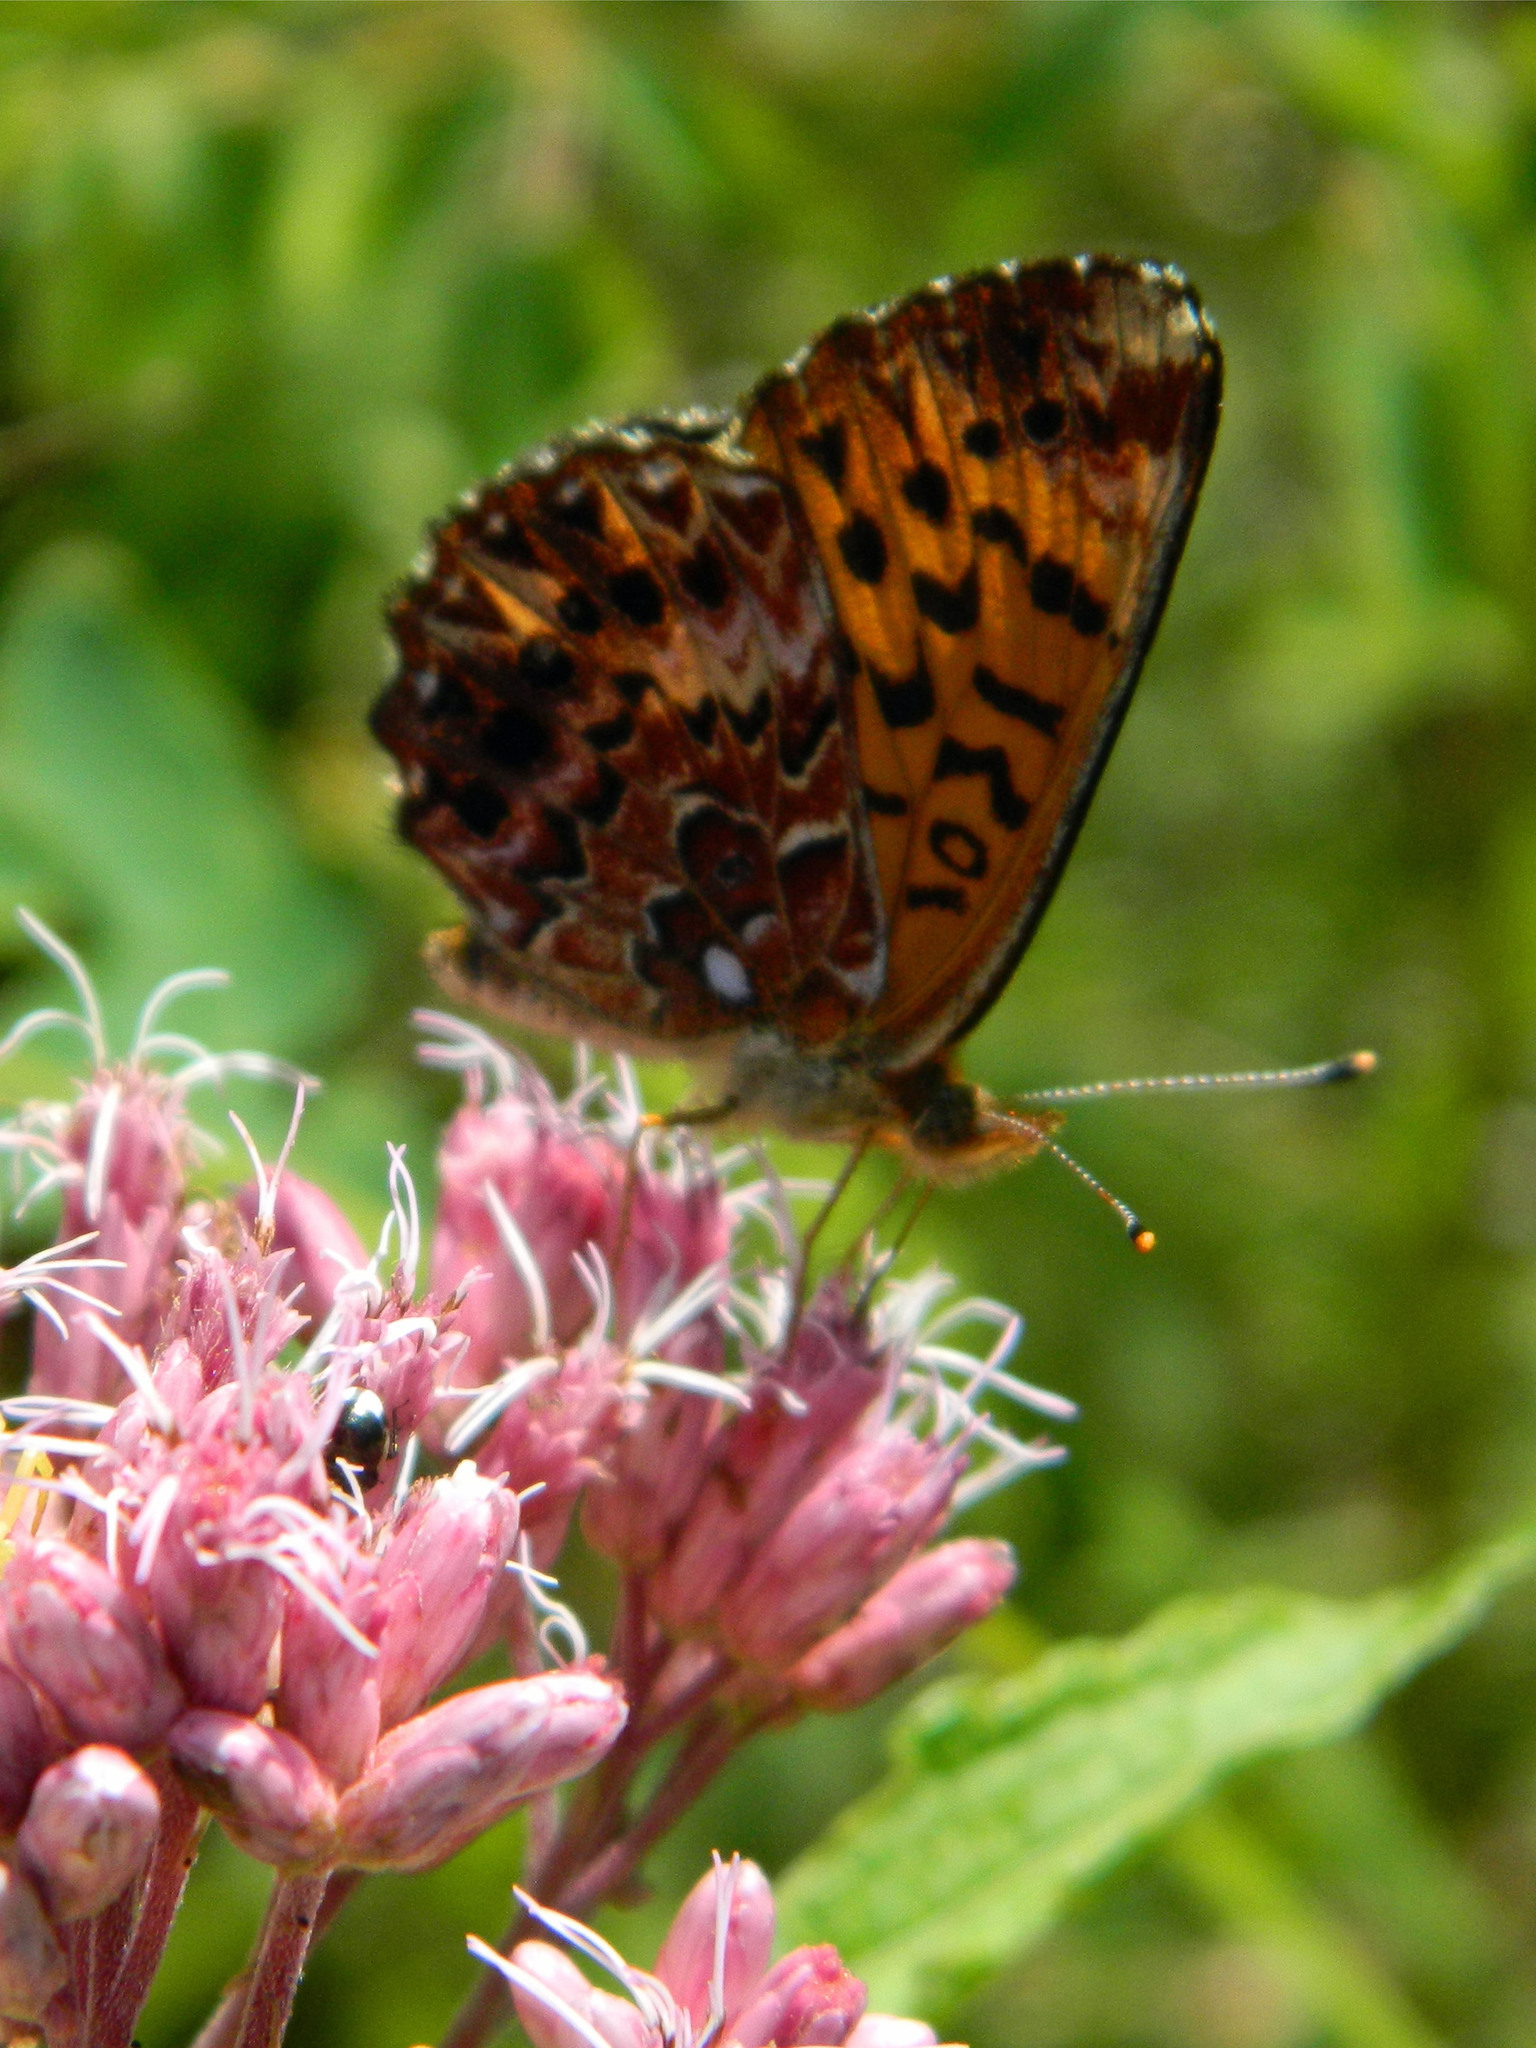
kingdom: Animalia
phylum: Arthropoda
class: Insecta
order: Lepidoptera
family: Nymphalidae
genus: Clossiana
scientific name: Clossiana chariclea
